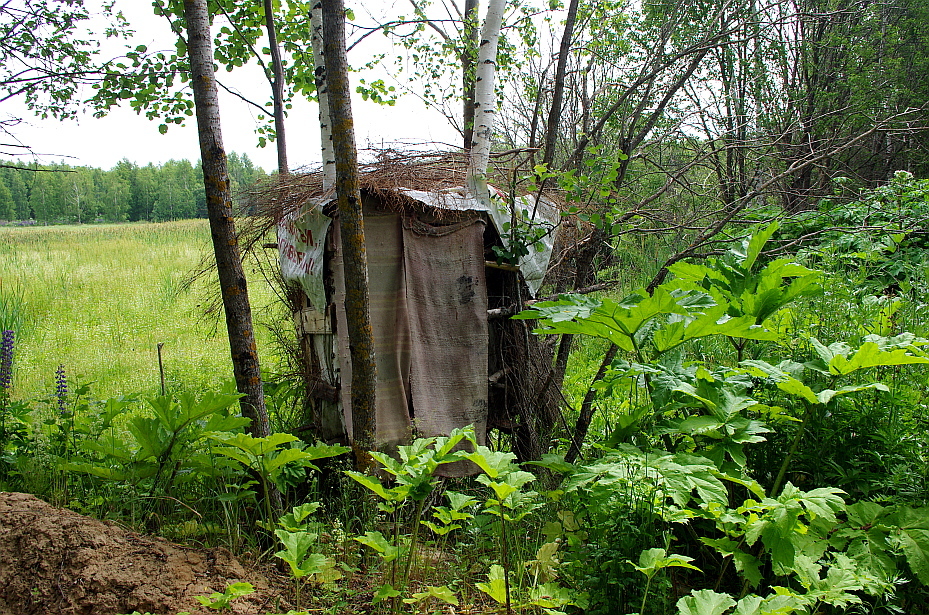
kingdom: Plantae
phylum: Tracheophyta
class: Magnoliopsida
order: Apiales
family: Apiaceae
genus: Heracleum
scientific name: Heracleum sosnowskyi
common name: Sosnowsky's hogweed
